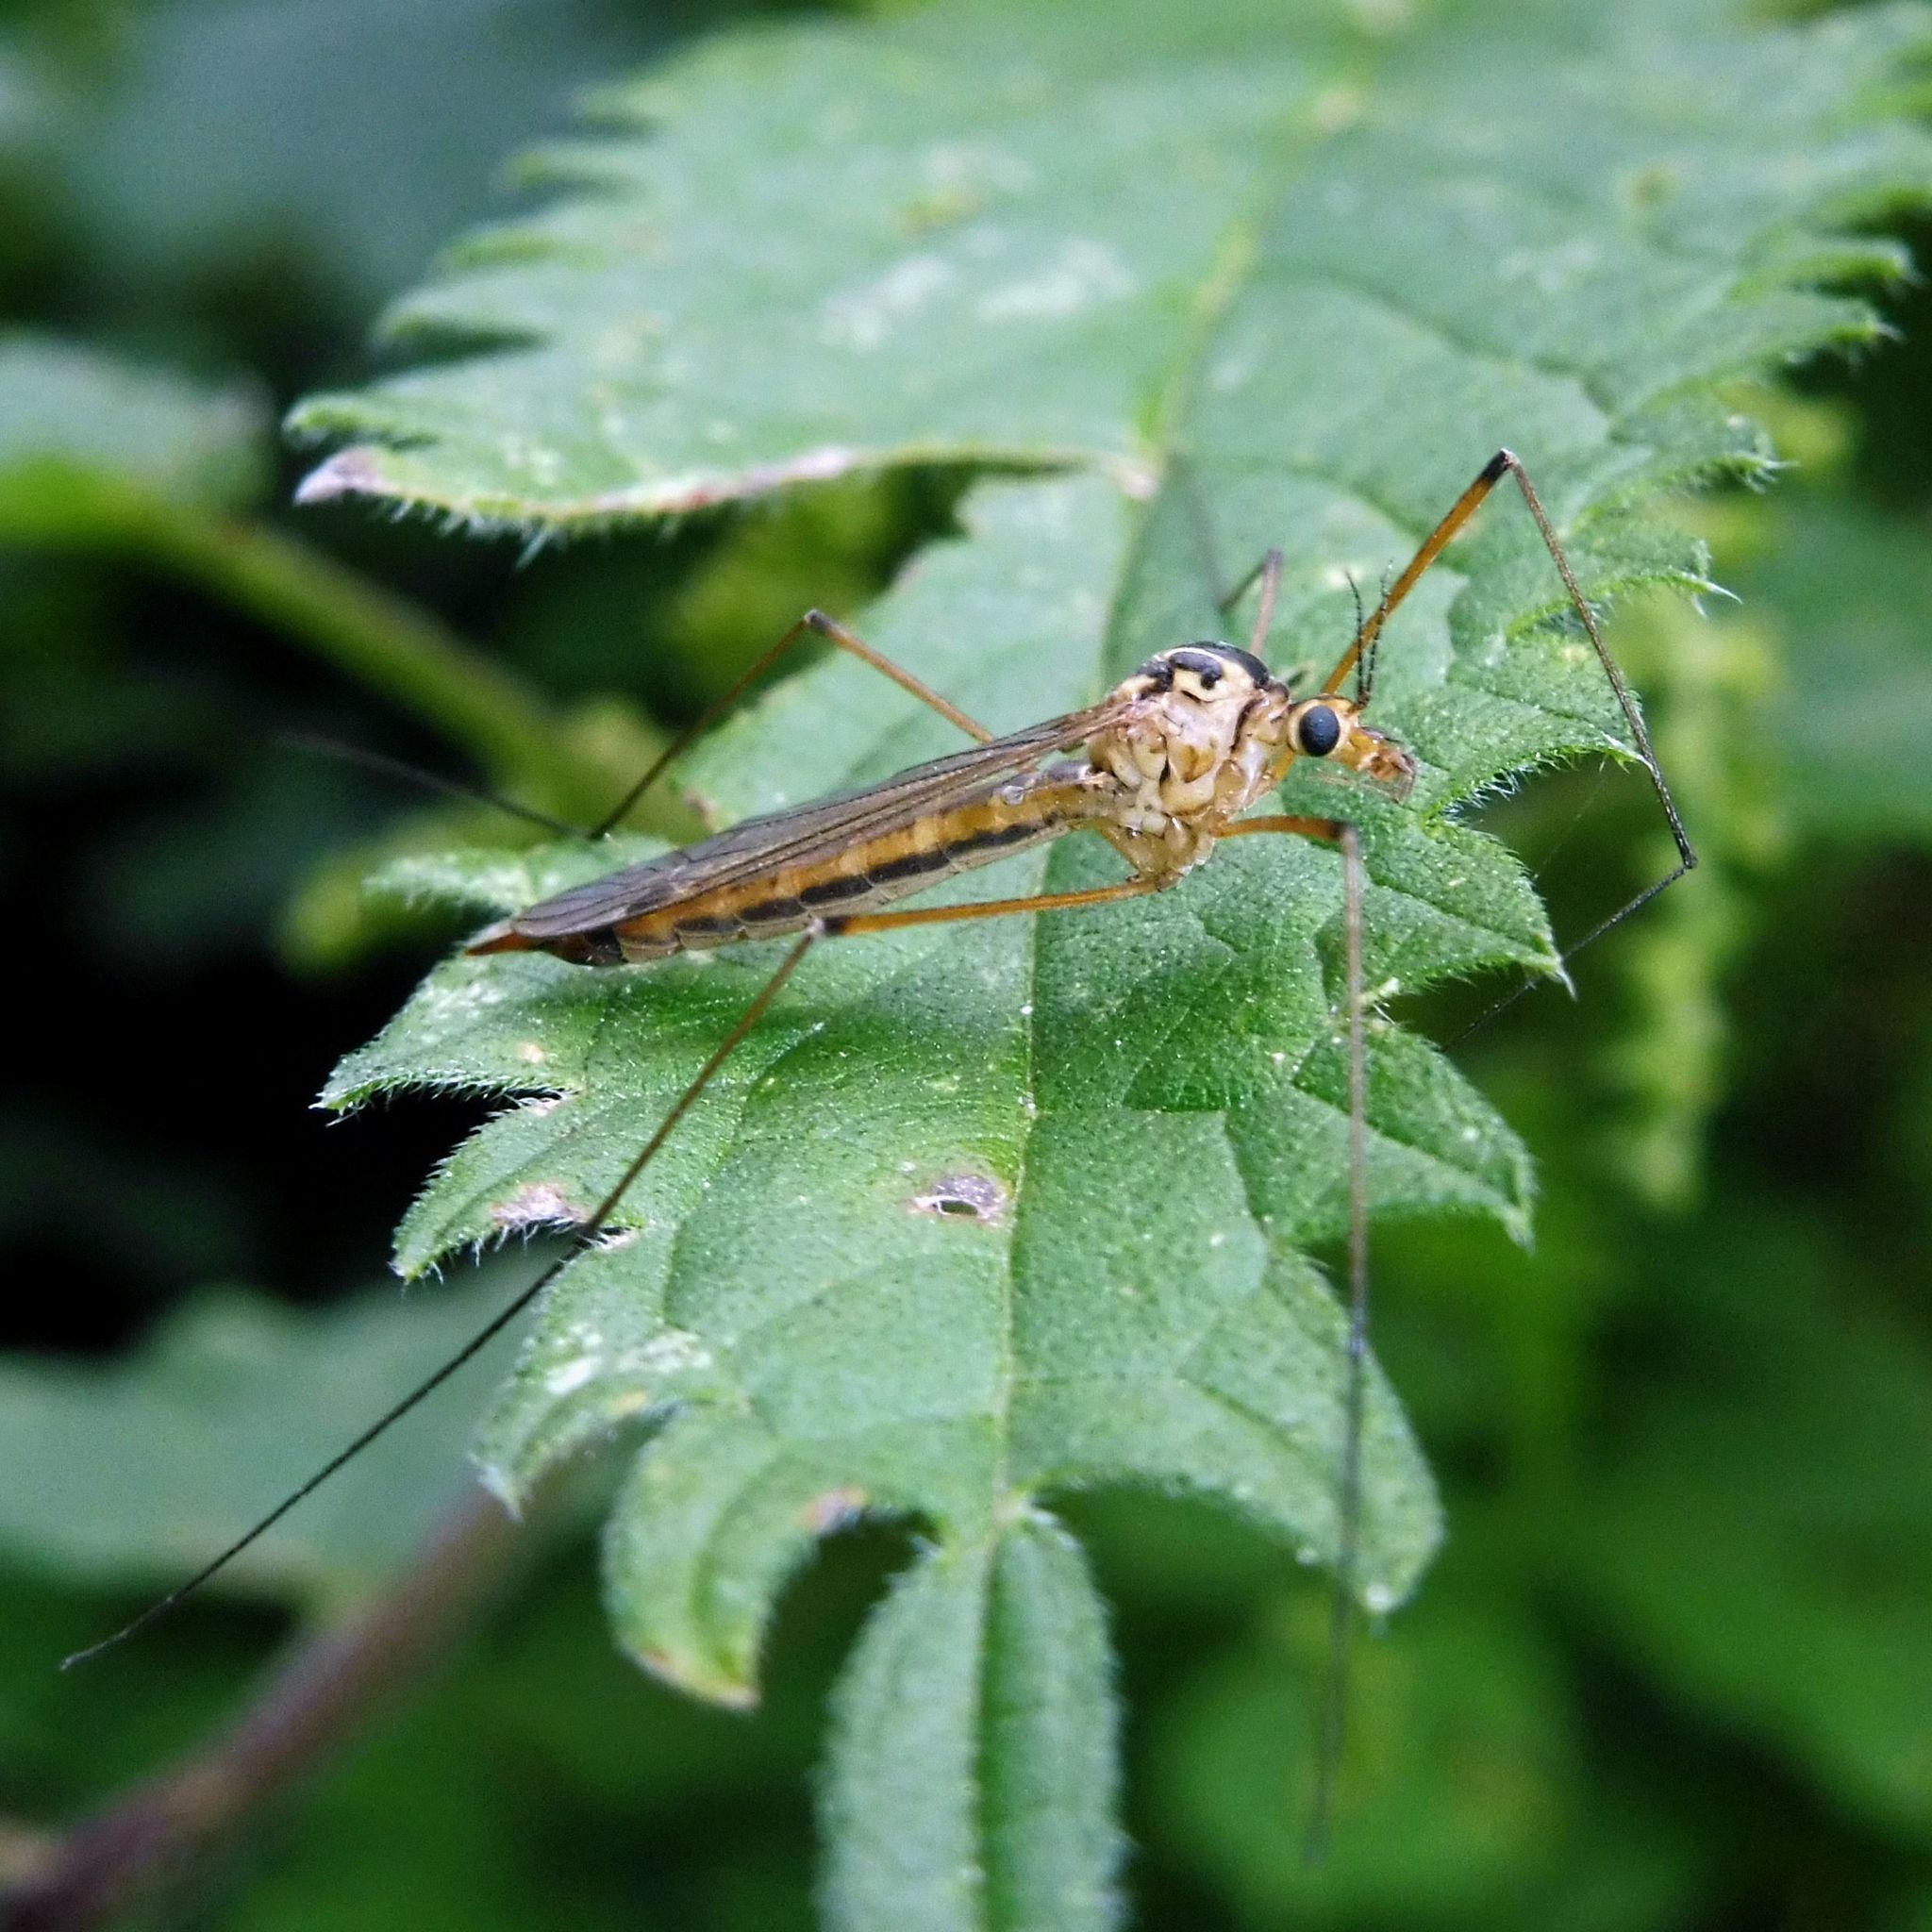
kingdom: Animalia
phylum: Arthropoda
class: Insecta
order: Diptera
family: Tipulidae
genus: Nephrotoma
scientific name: Nephrotoma cornicina
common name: Cranefly
